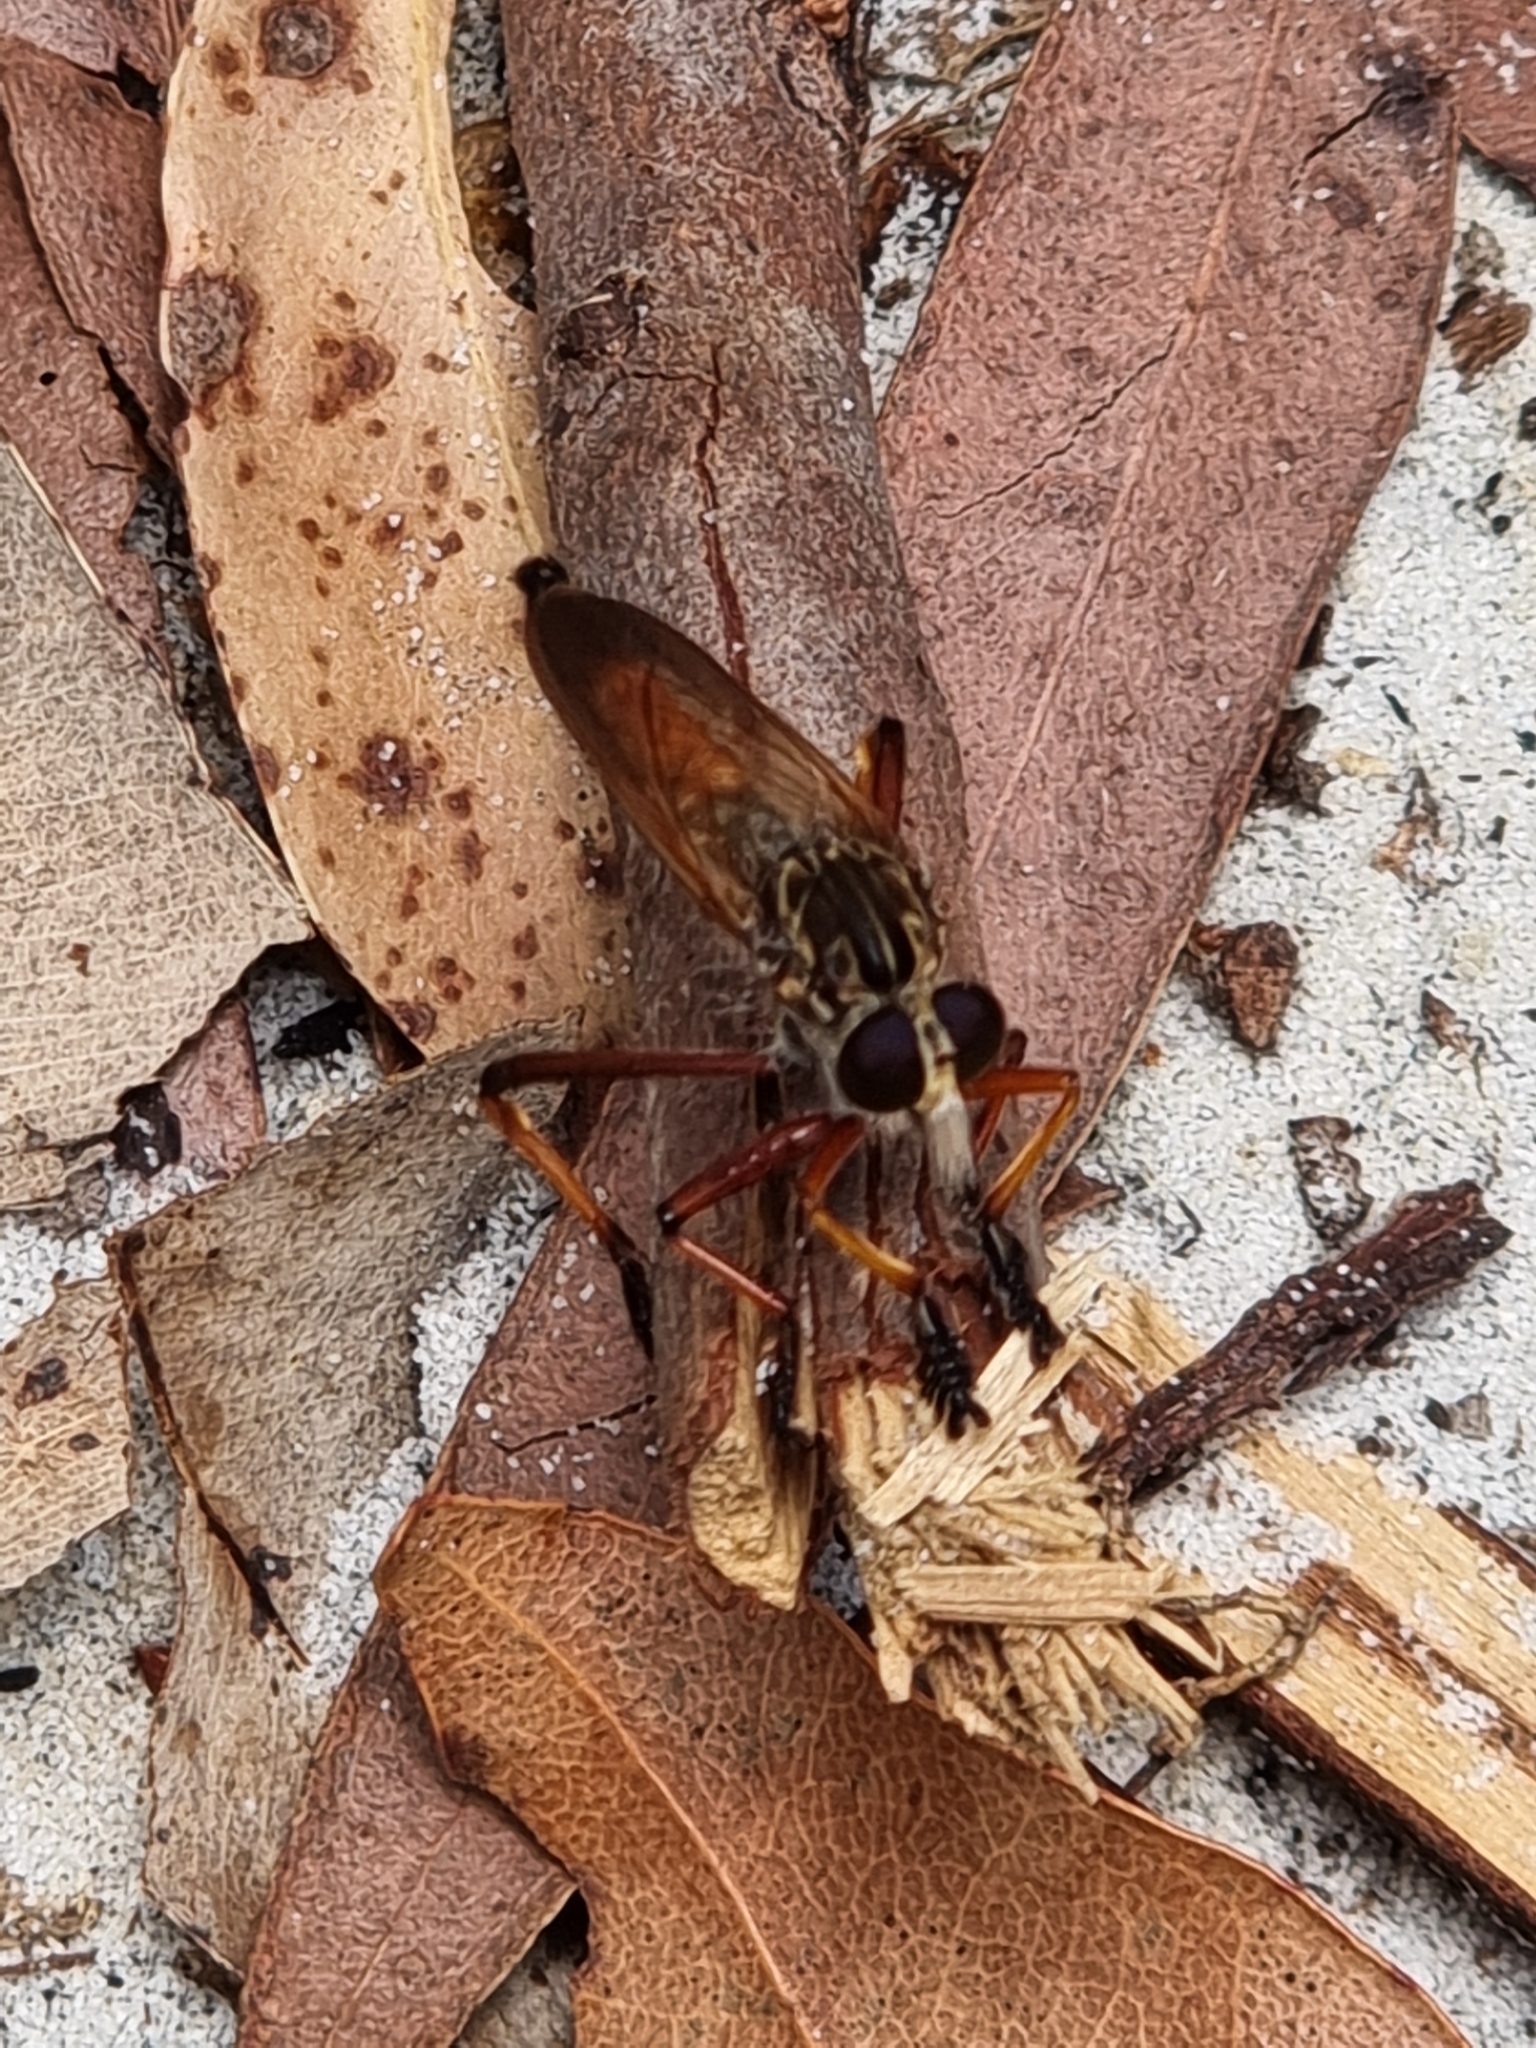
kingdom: Animalia
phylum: Arthropoda
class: Insecta
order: Diptera
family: Asilidae
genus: Colepia
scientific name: Colepia cultripes
